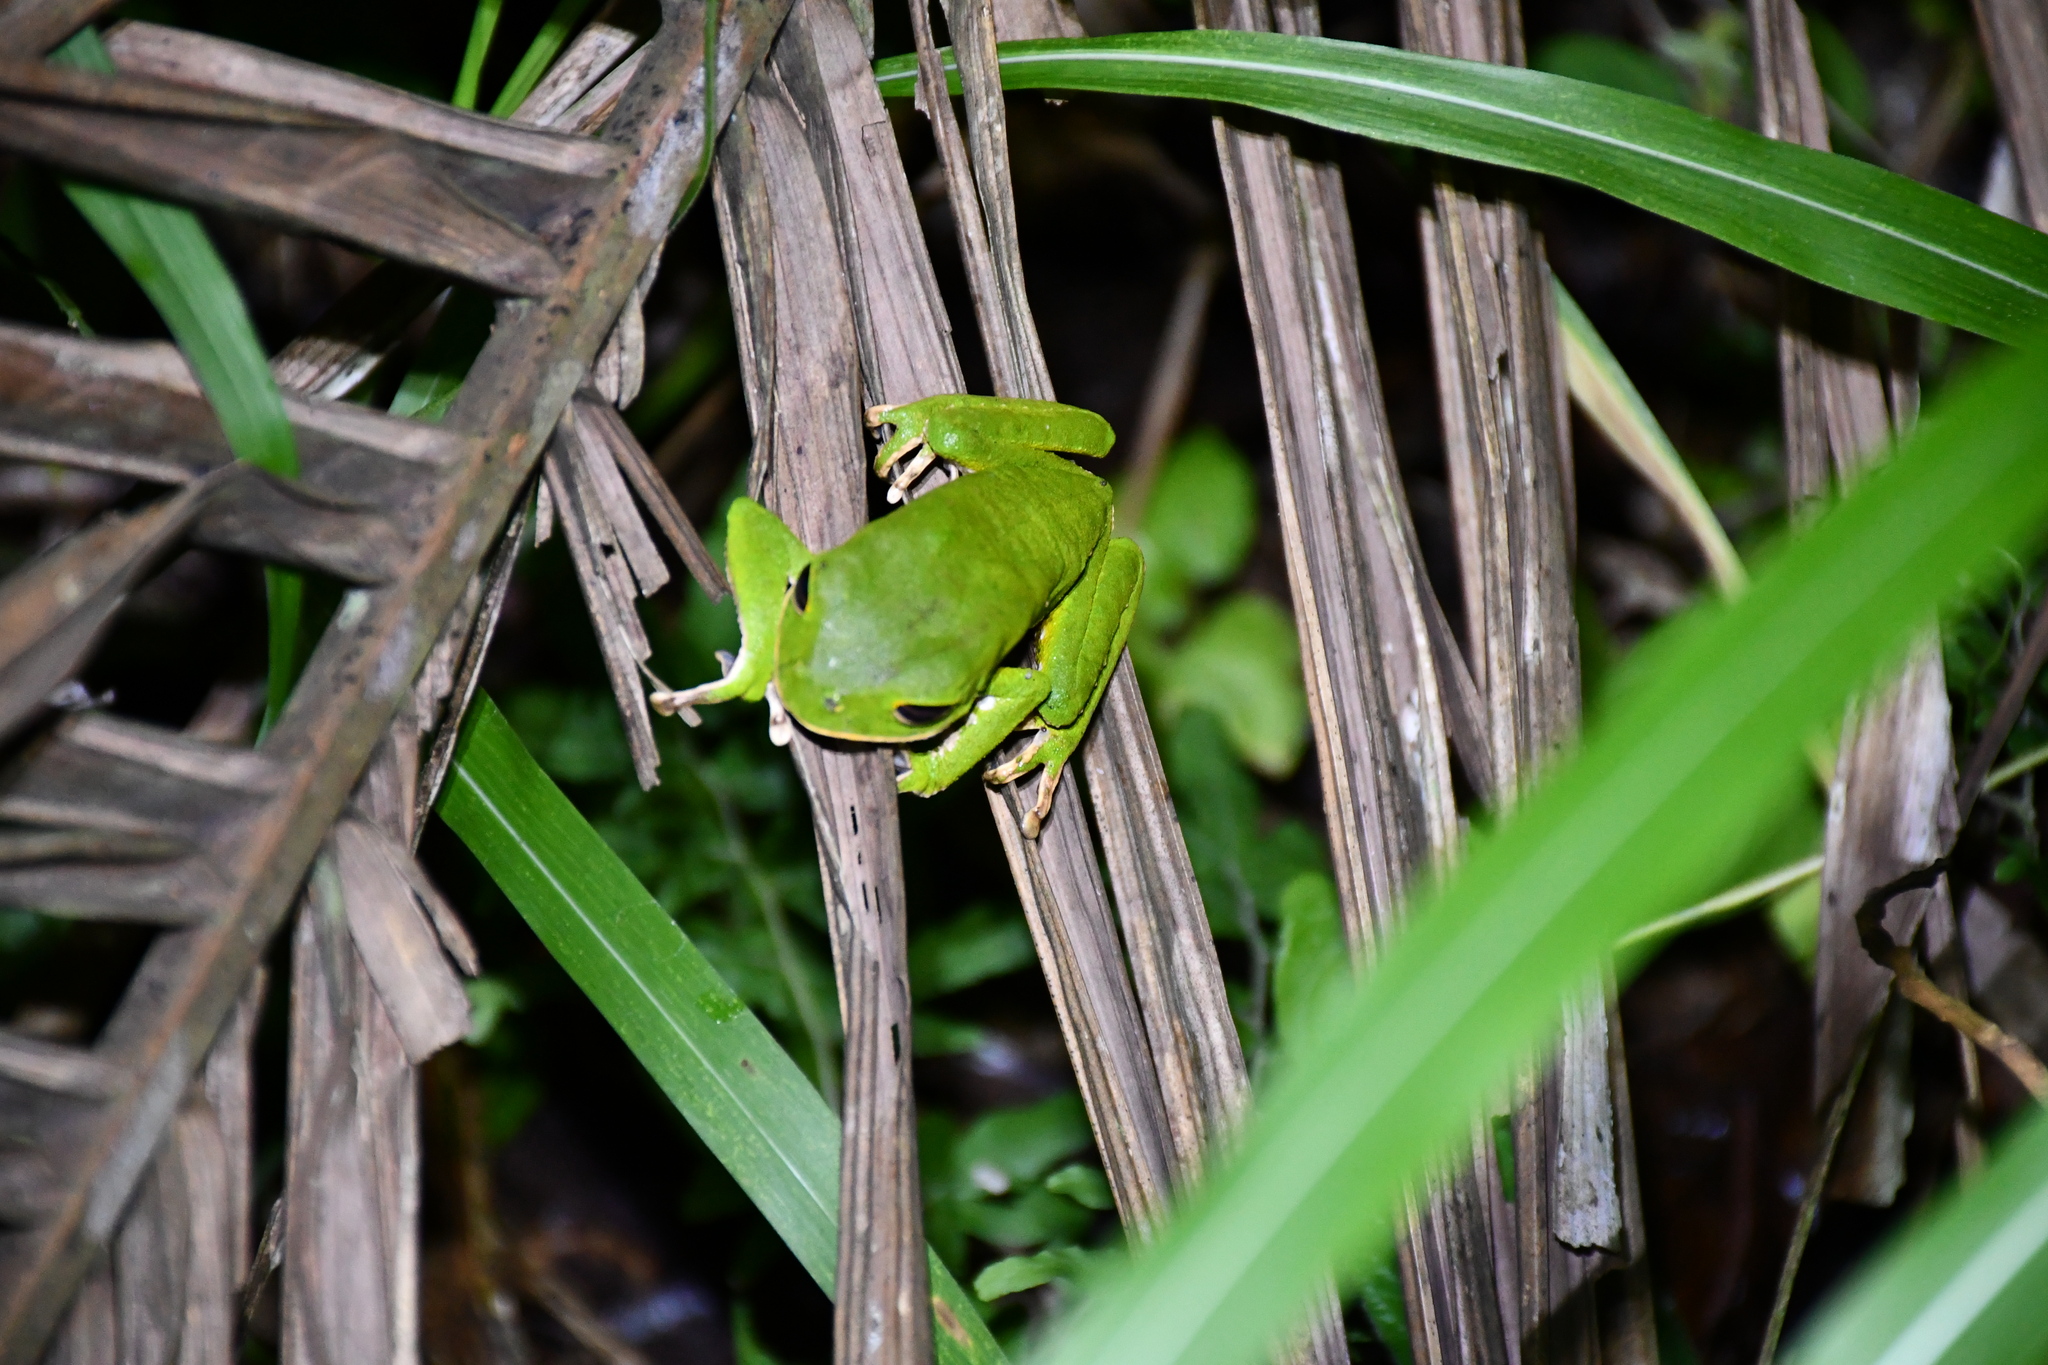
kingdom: Animalia
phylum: Chordata
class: Amphibia
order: Anura
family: Phyllomedusidae
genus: Phyllomedusa
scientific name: Phyllomedusa camba
